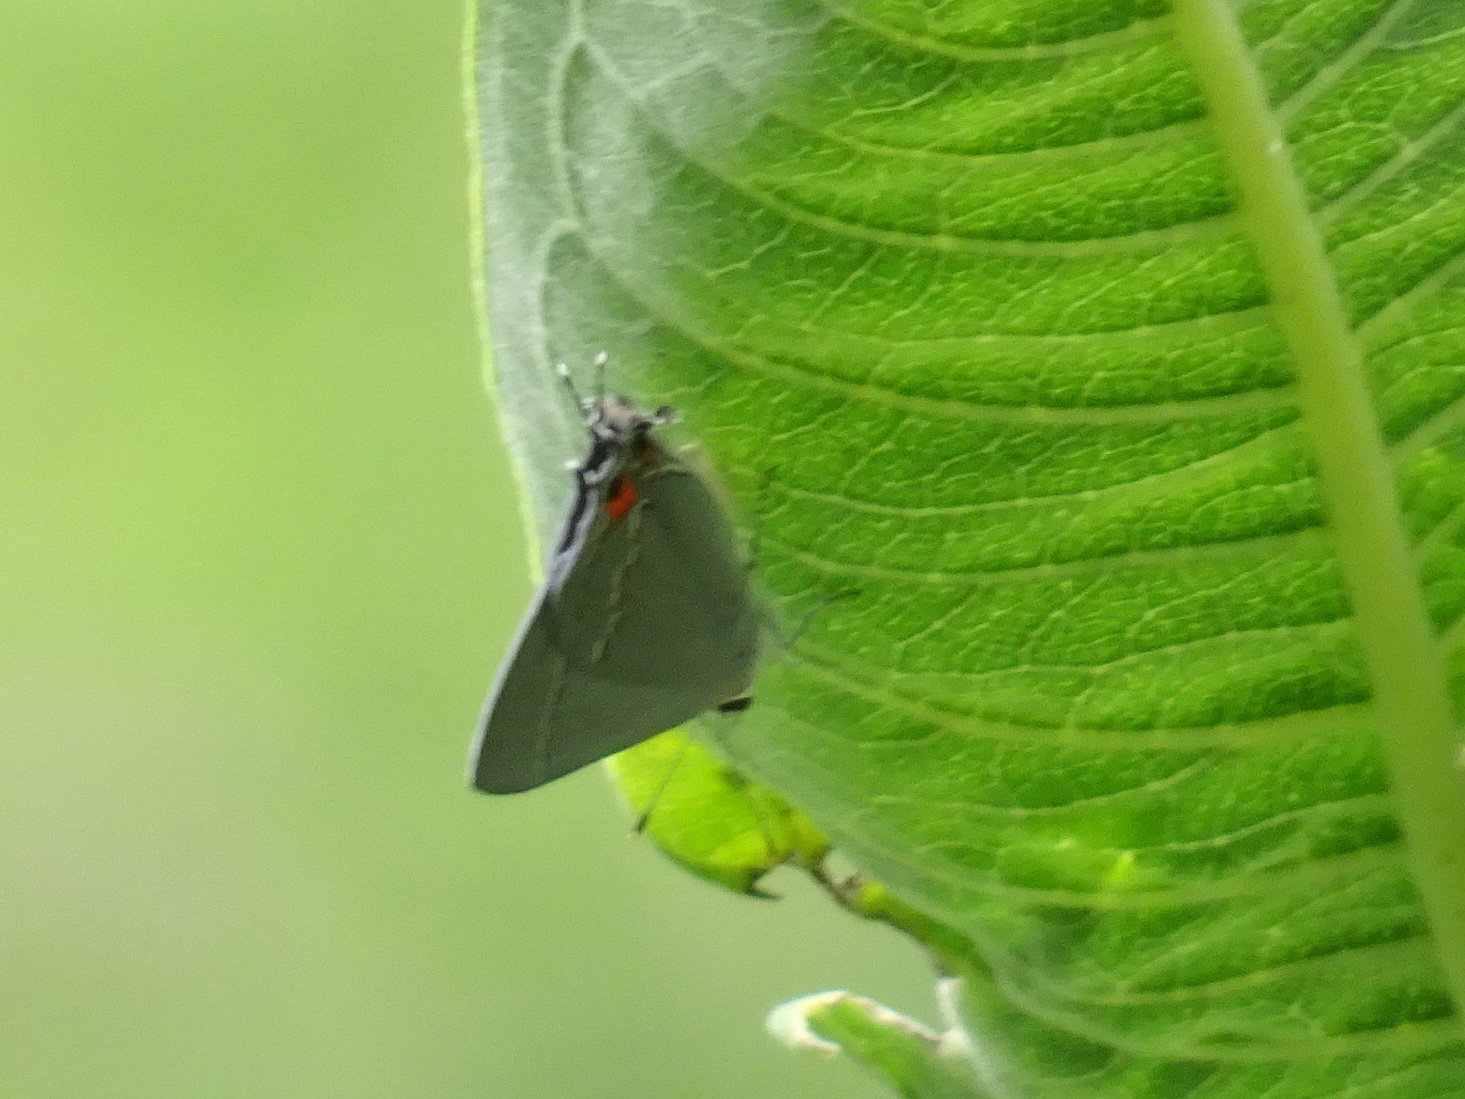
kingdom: Animalia
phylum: Arthropoda
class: Insecta
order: Lepidoptera
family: Lycaenidae
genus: Strymon
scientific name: Strymon melinus
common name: Gray hairstreak
